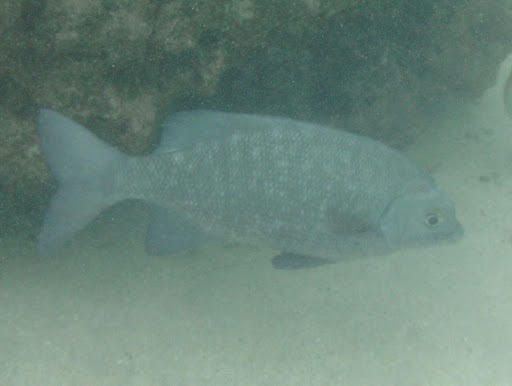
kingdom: Animalia
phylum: Chordata
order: Perciformes
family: Kyphosidae
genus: Kyphosus
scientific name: Kyphosus cinerascens
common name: Topsail drummer
